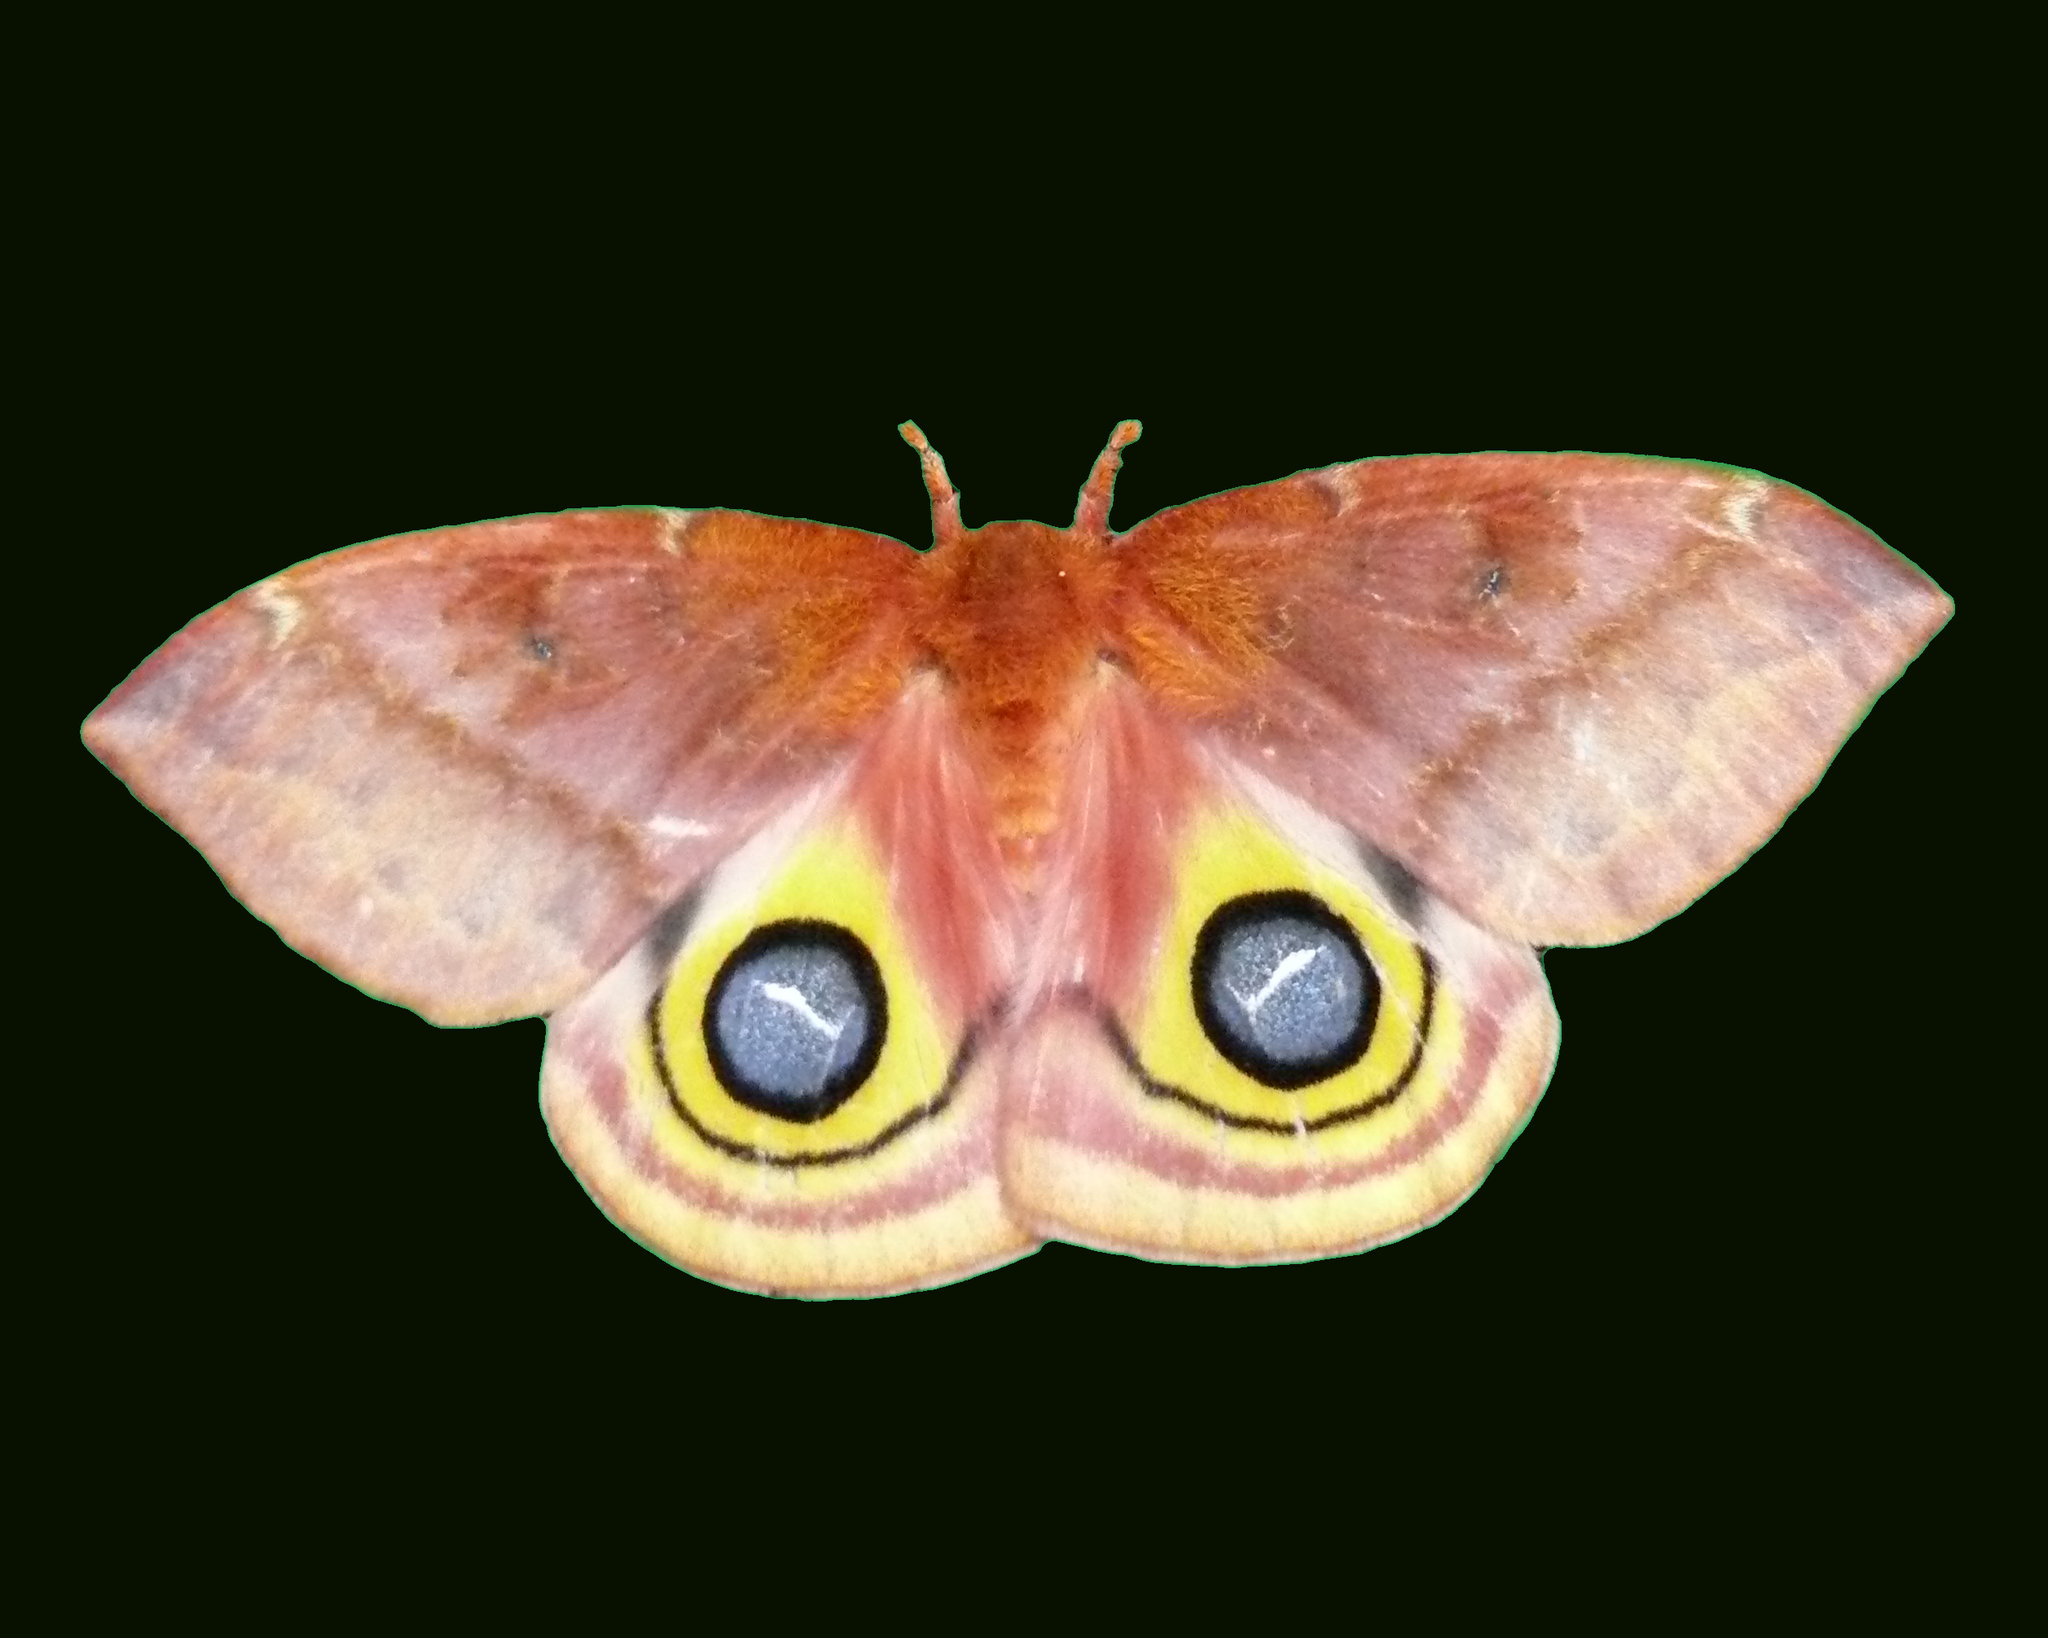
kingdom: Animalia
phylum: Arthropoda
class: Insecta
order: Lepidoptera
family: Saturniidae
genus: Automeris
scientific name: Automeris io
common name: Io moth
